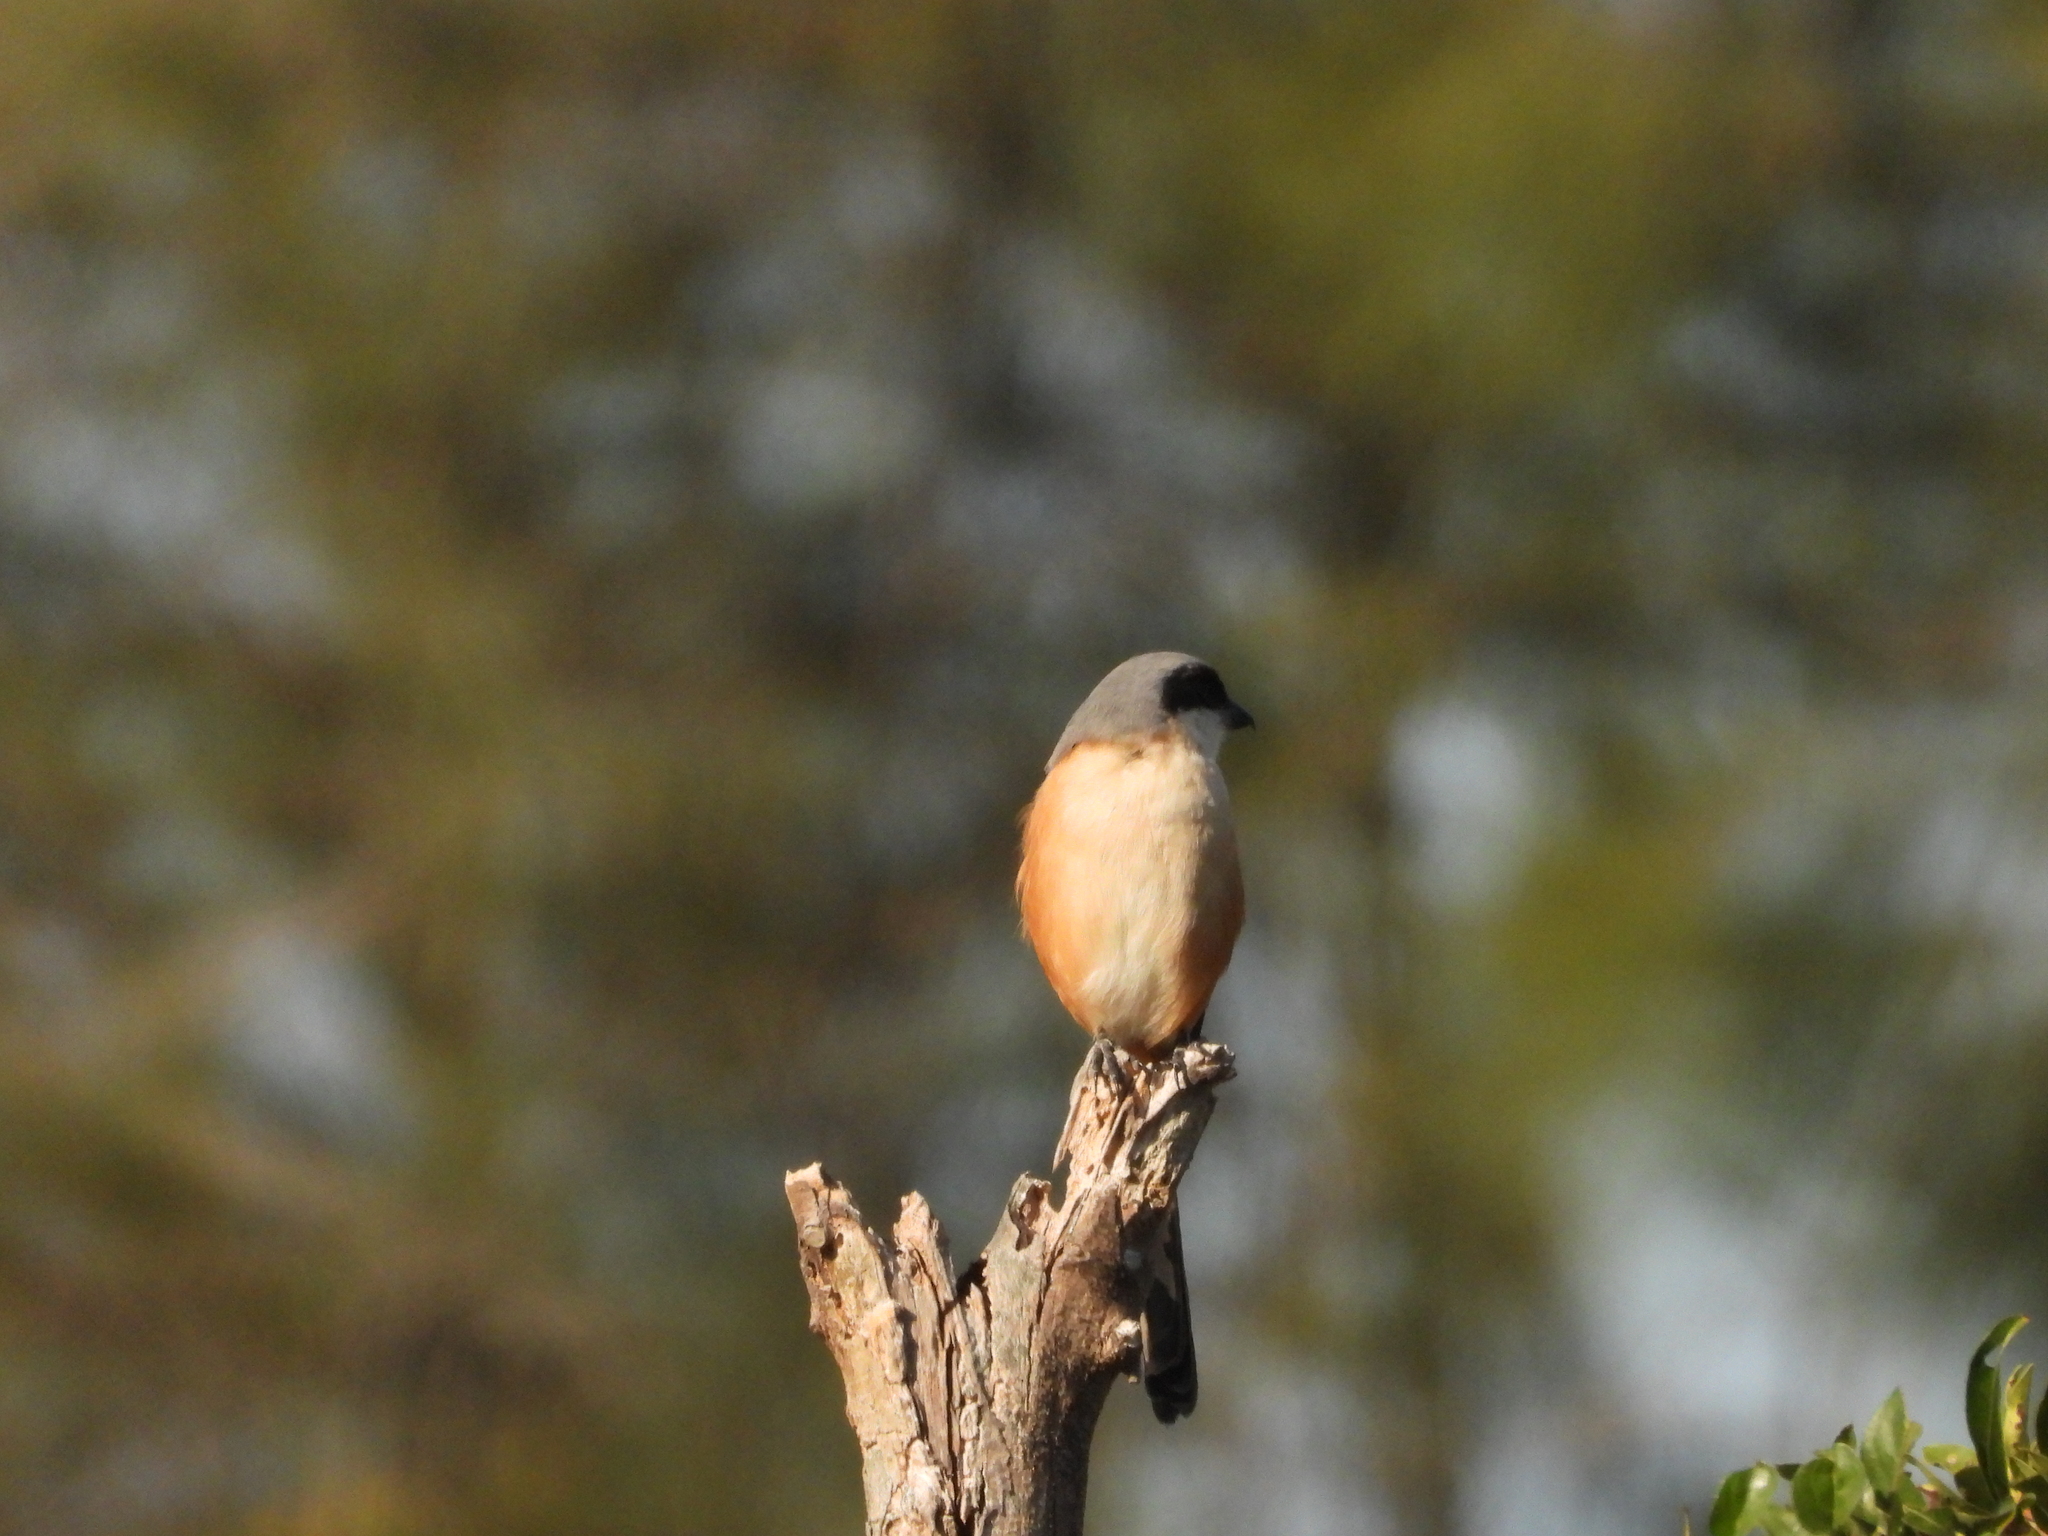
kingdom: Animalia
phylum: Chordata
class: Aves
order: Passeriformes
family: Laniidae
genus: Lanius
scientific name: Lanius schach
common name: Long-tailed shrike
